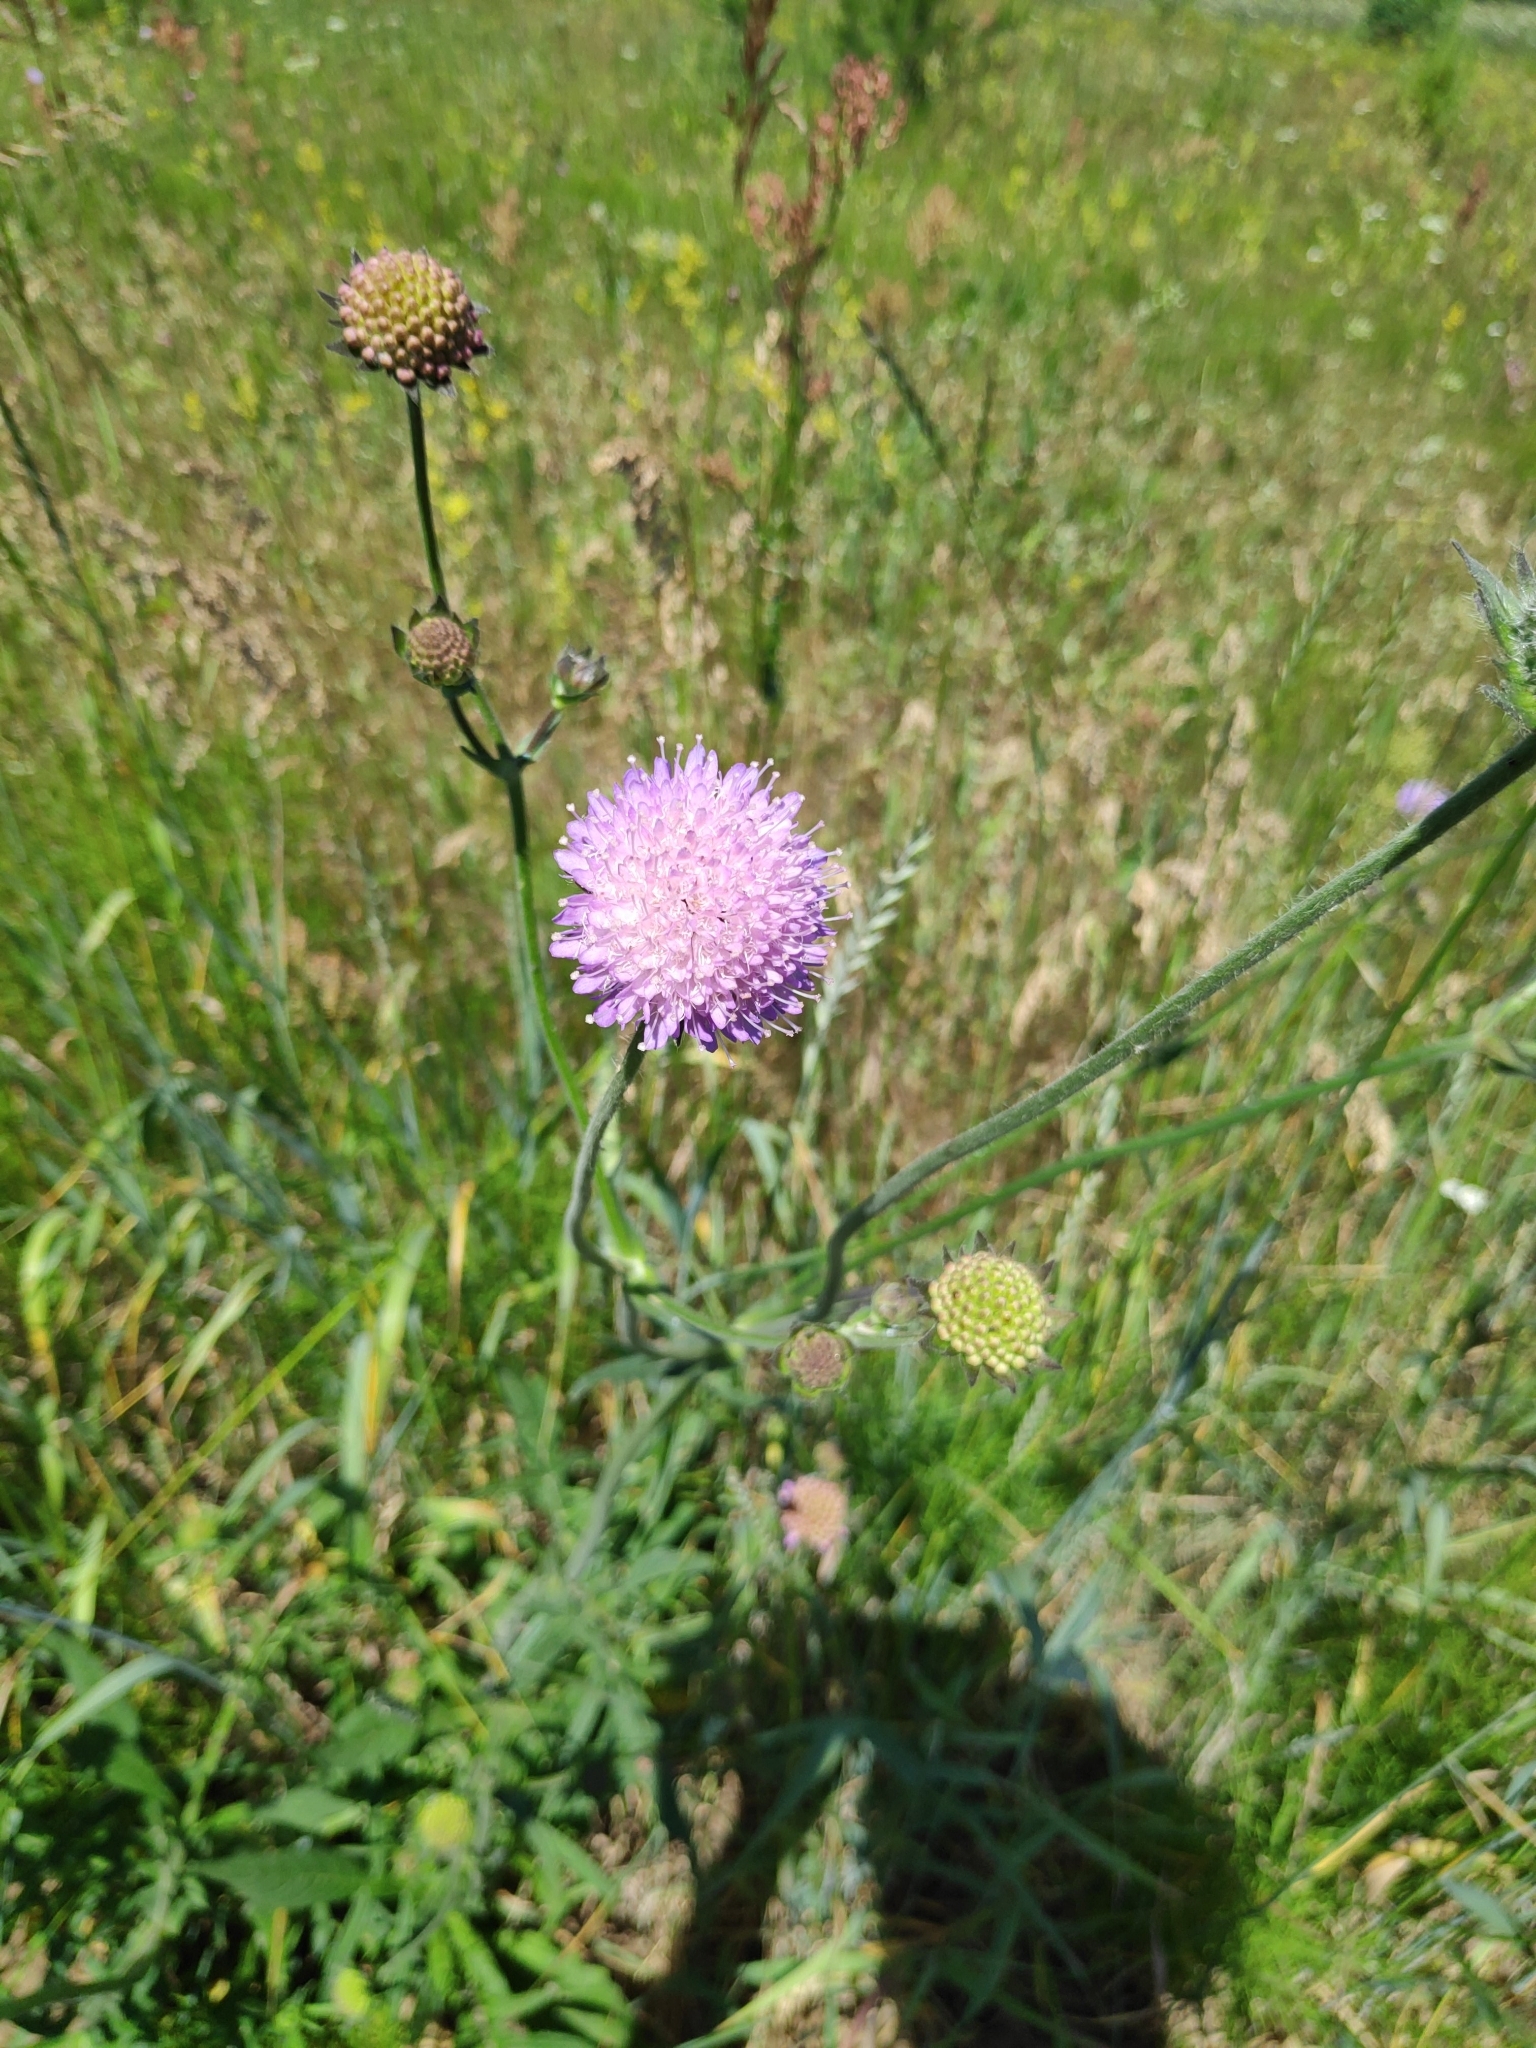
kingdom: Plantae
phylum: Tracheophyta
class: Magnoliopsida
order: Dipsacales
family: Caprifoliaceae
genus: Knautia
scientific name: Knautia arvensis
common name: Field scabiosa
